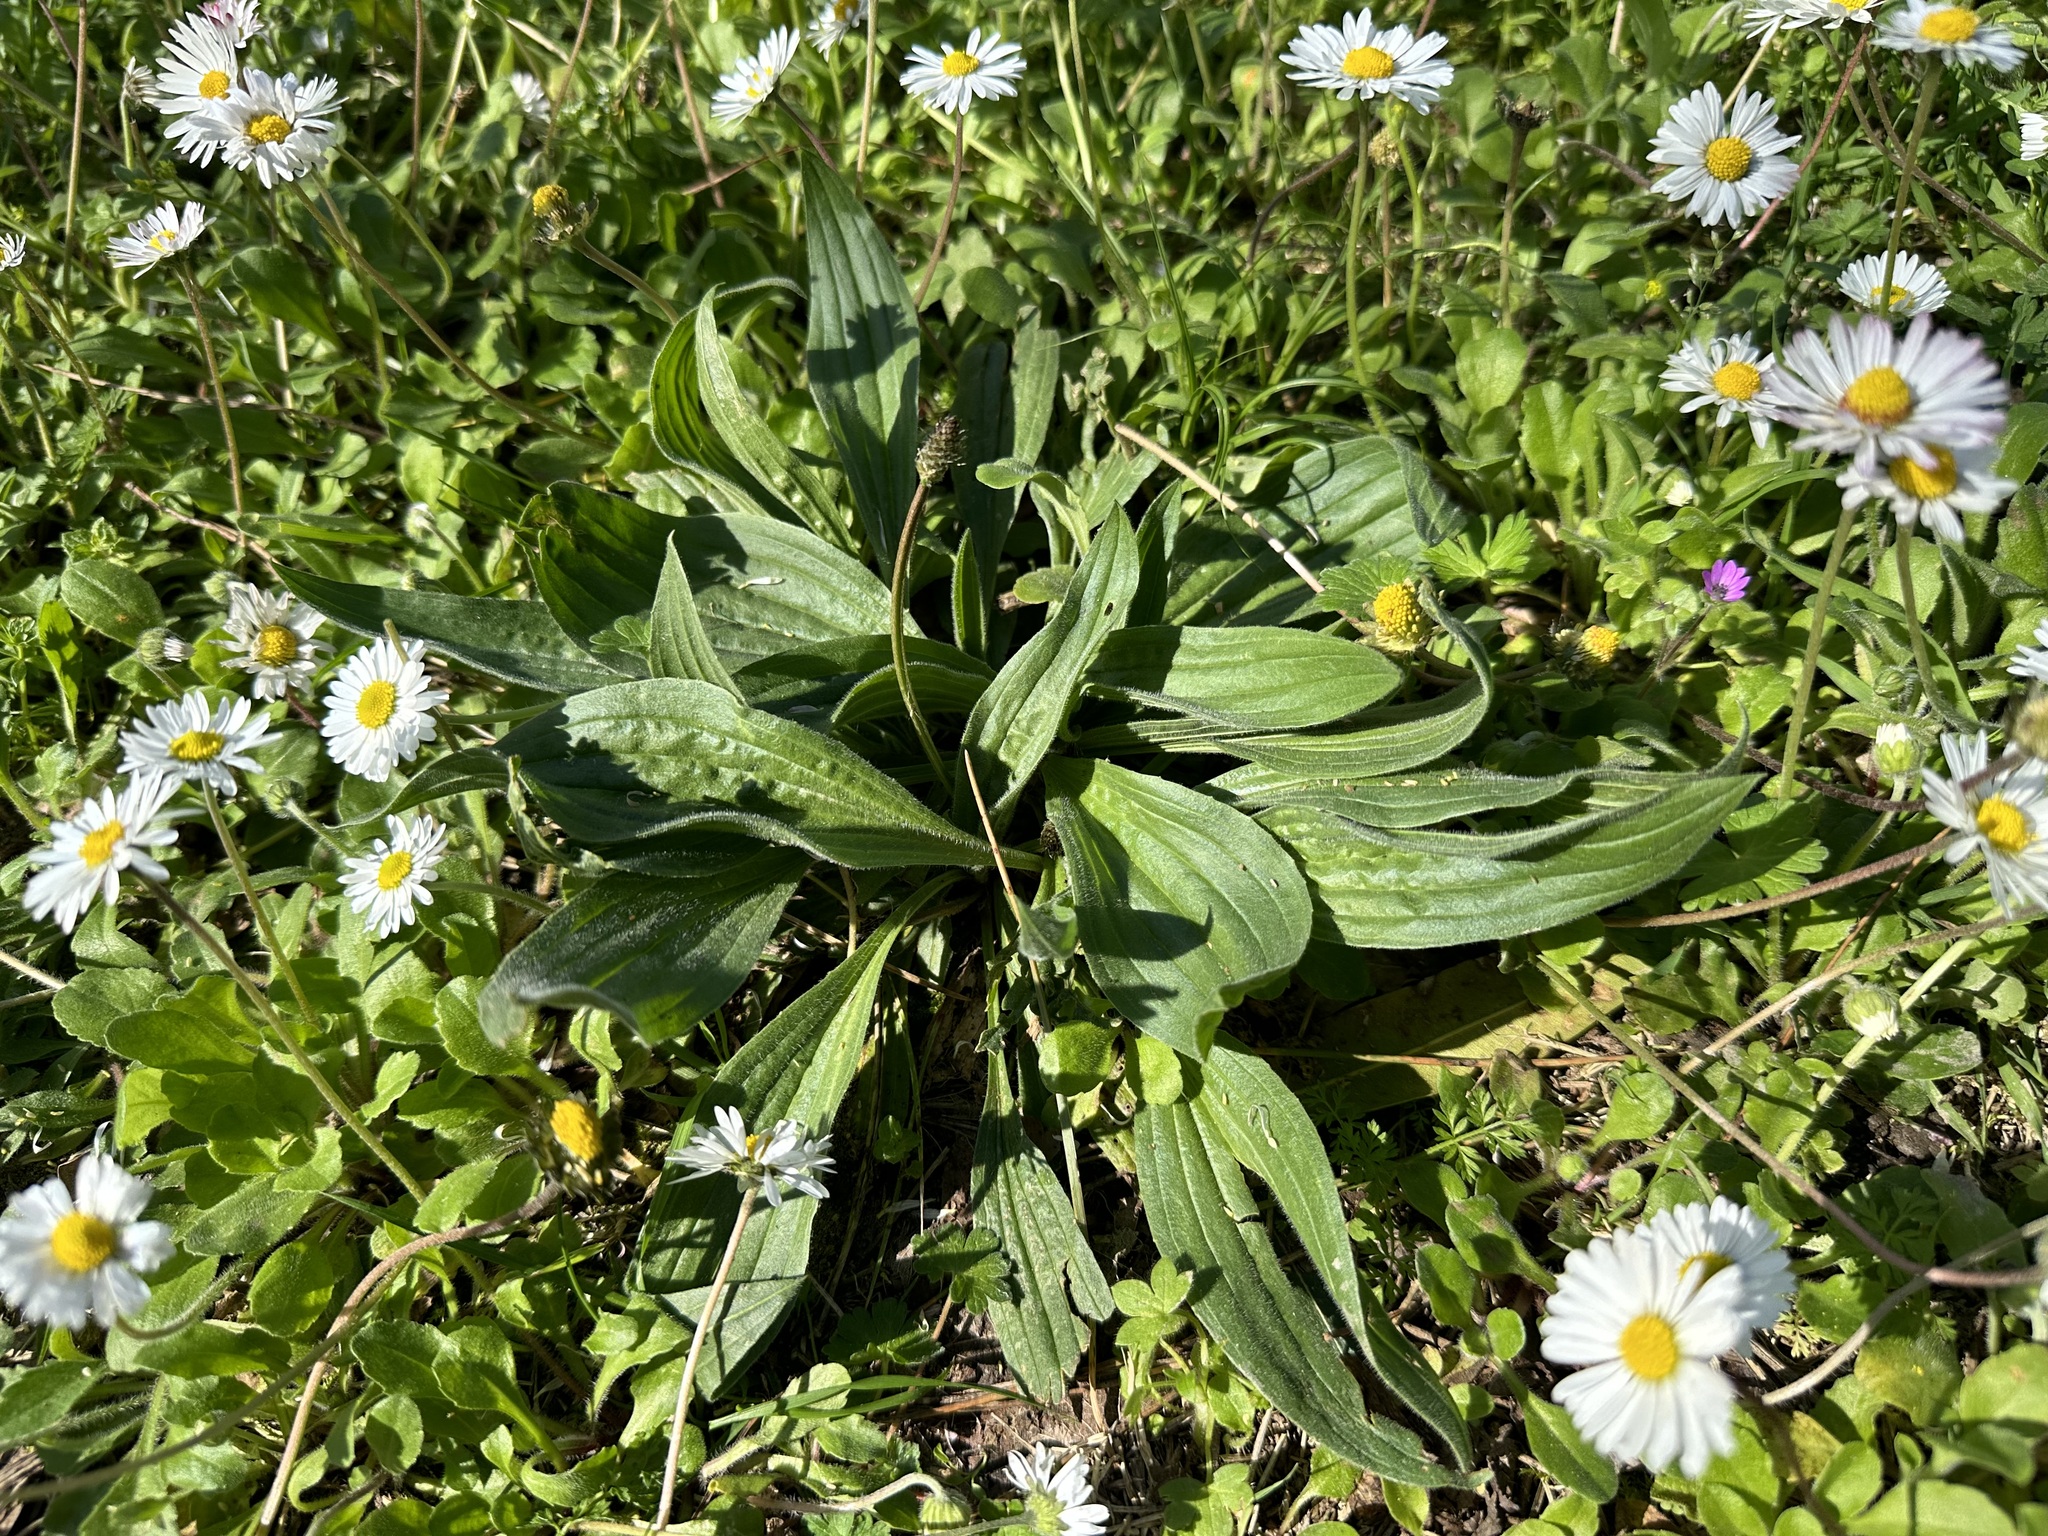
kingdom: Plantae
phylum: Tracheophyta
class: Magnoliopsida
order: Lamiales
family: Plantaginaceae
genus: Plantago
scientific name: Plantago lanceolata
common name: Ribwort plantain
